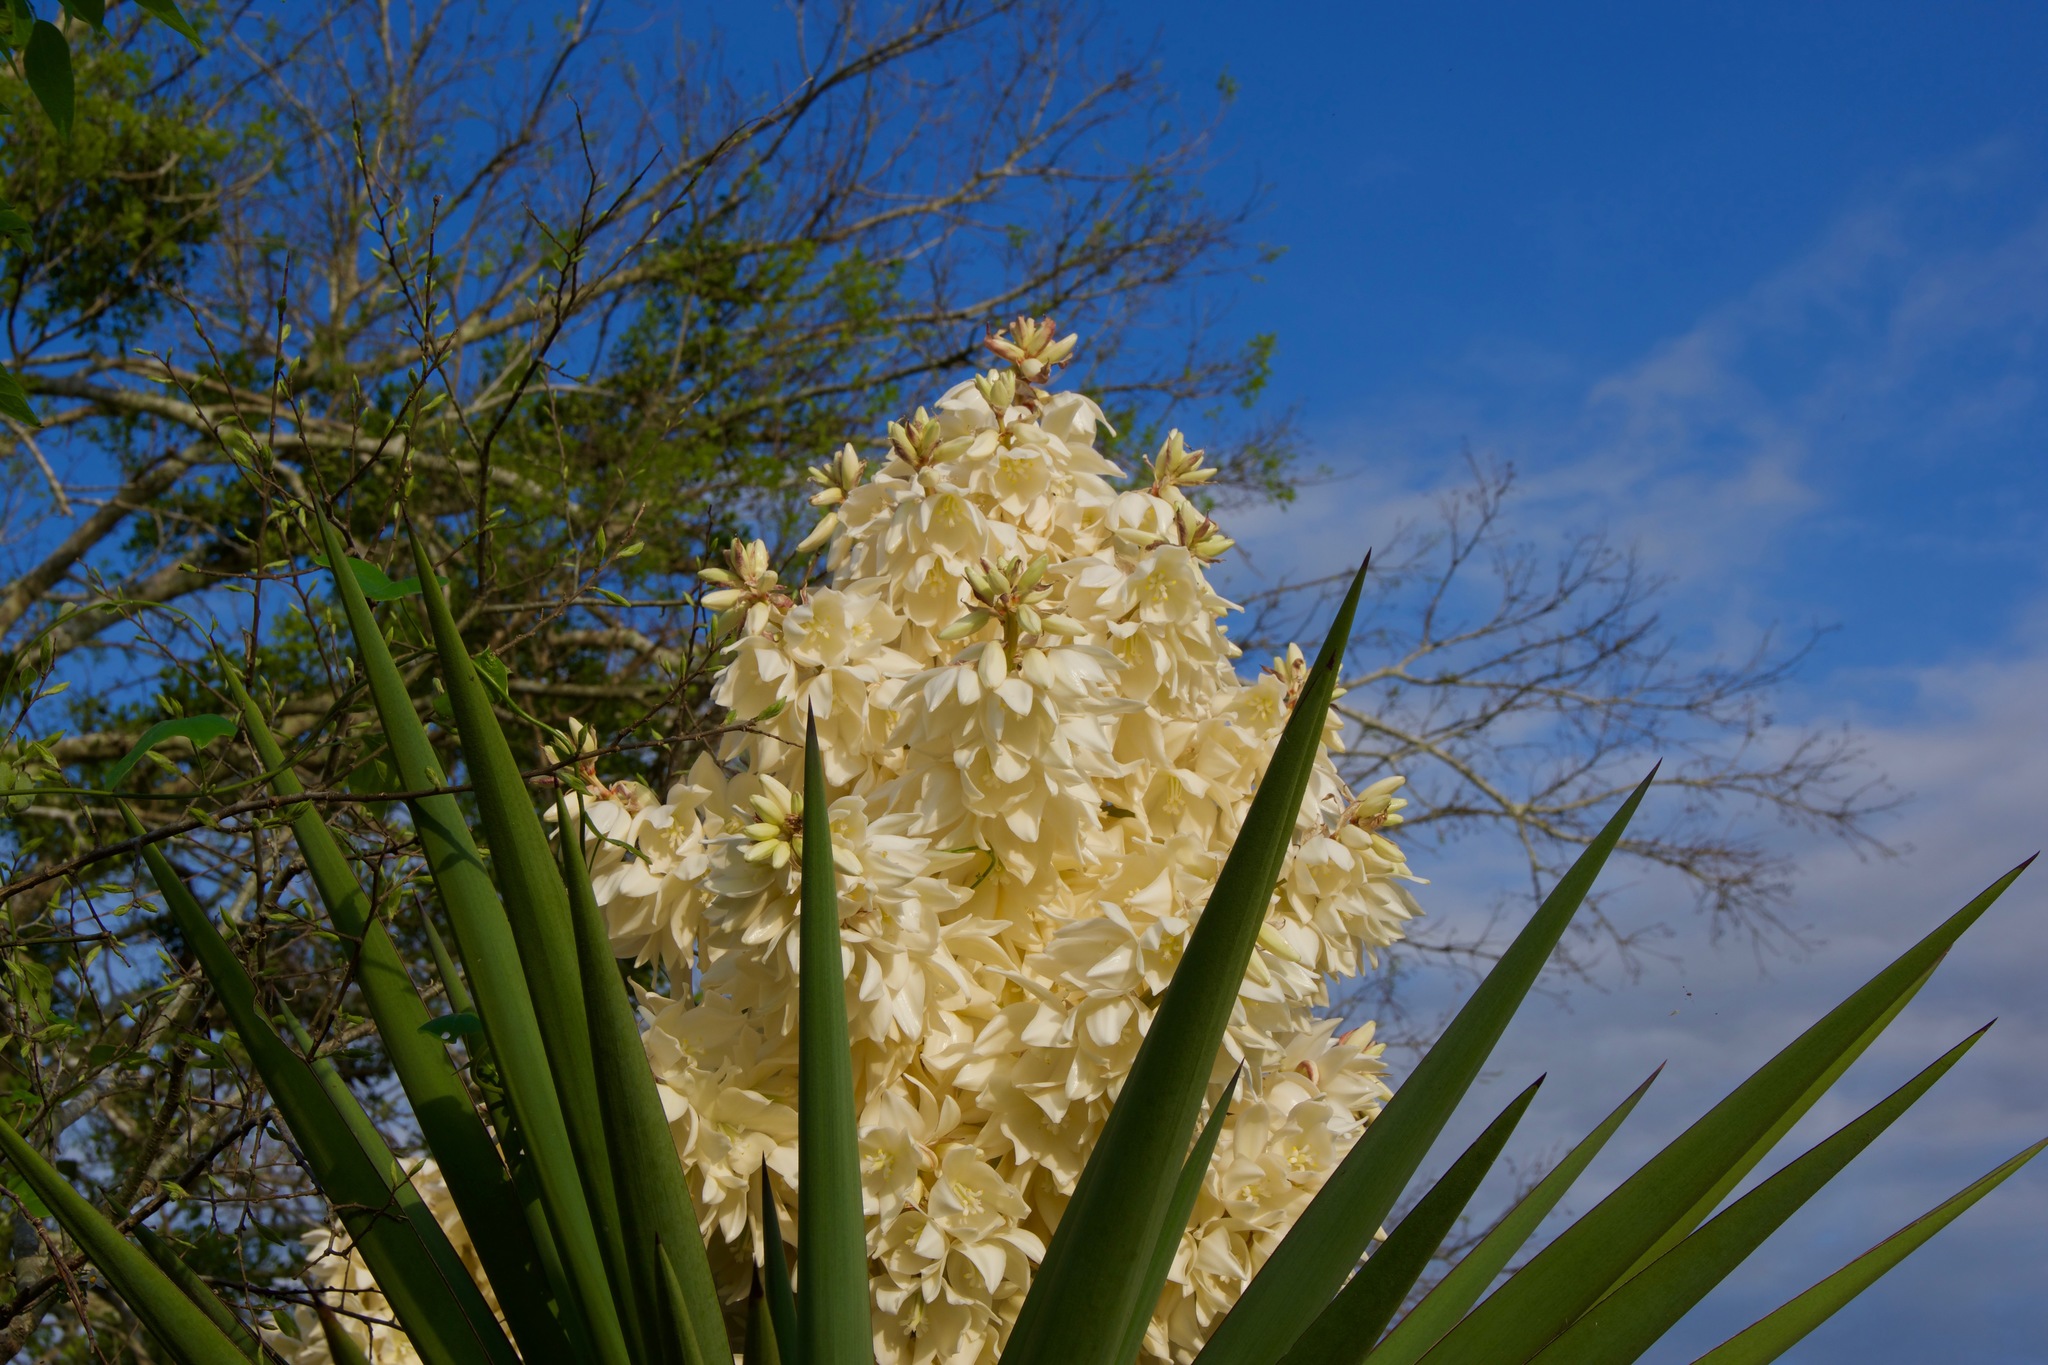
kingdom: Plantae
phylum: Tracheophyta
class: Liliopsida
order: Asparagales
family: Asparagaceae
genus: Yucca
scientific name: Yucca treculiana
